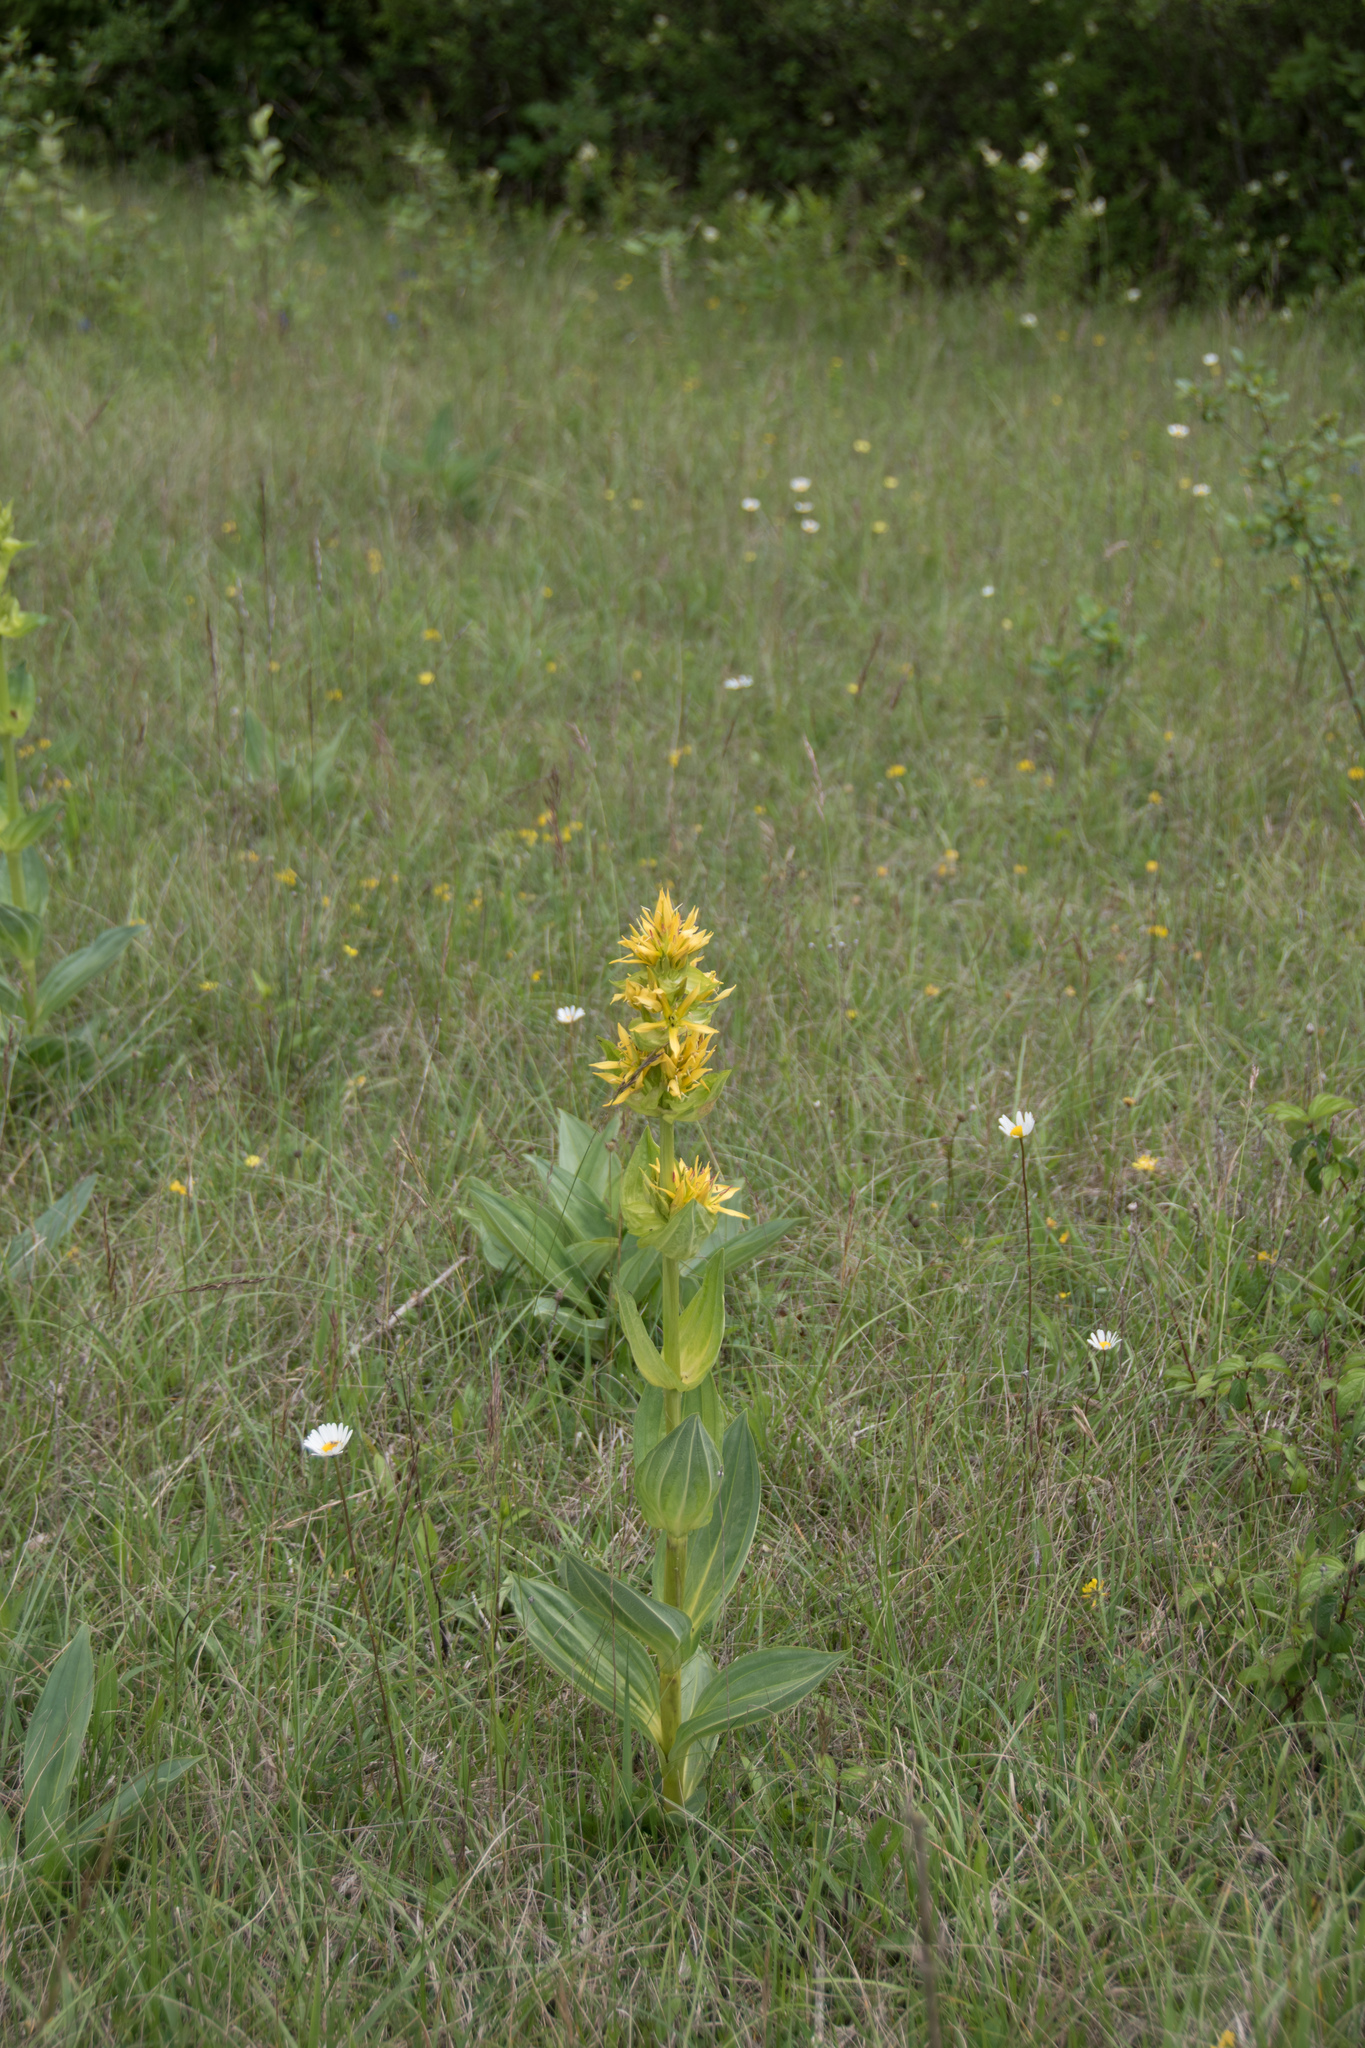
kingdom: Plantae
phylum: Tracheophyta
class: Magnoliopsida
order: Gentianales
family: Gentianaceae
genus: Gentiana
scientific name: Gentiana lutea
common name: Great yellow gentian
